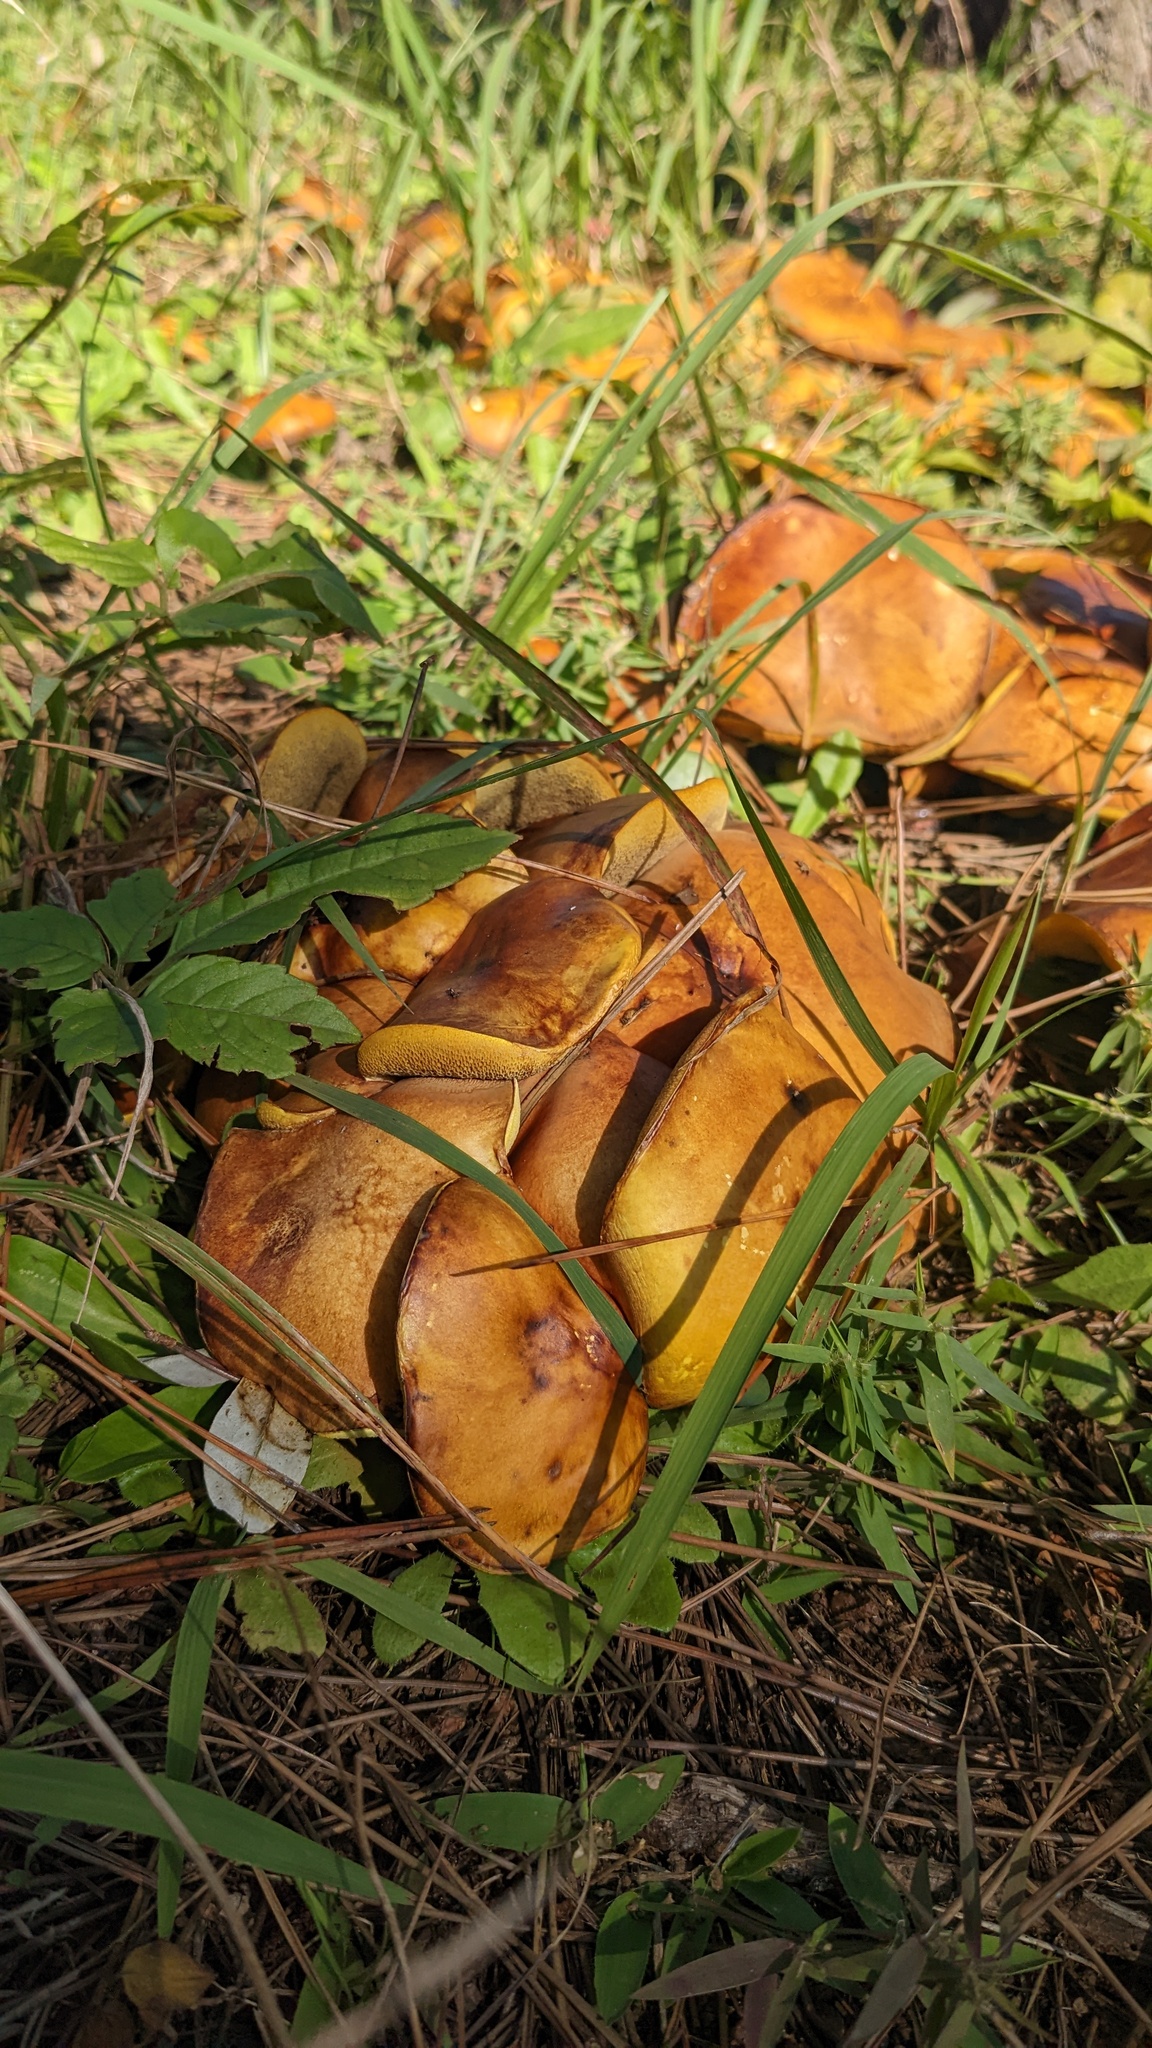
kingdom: Fungi
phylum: Basidiomycota
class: Agaricomycetes
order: Boletales
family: Suillaceae
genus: Suillus
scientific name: Suillus granulatus
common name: Weeping bolete
